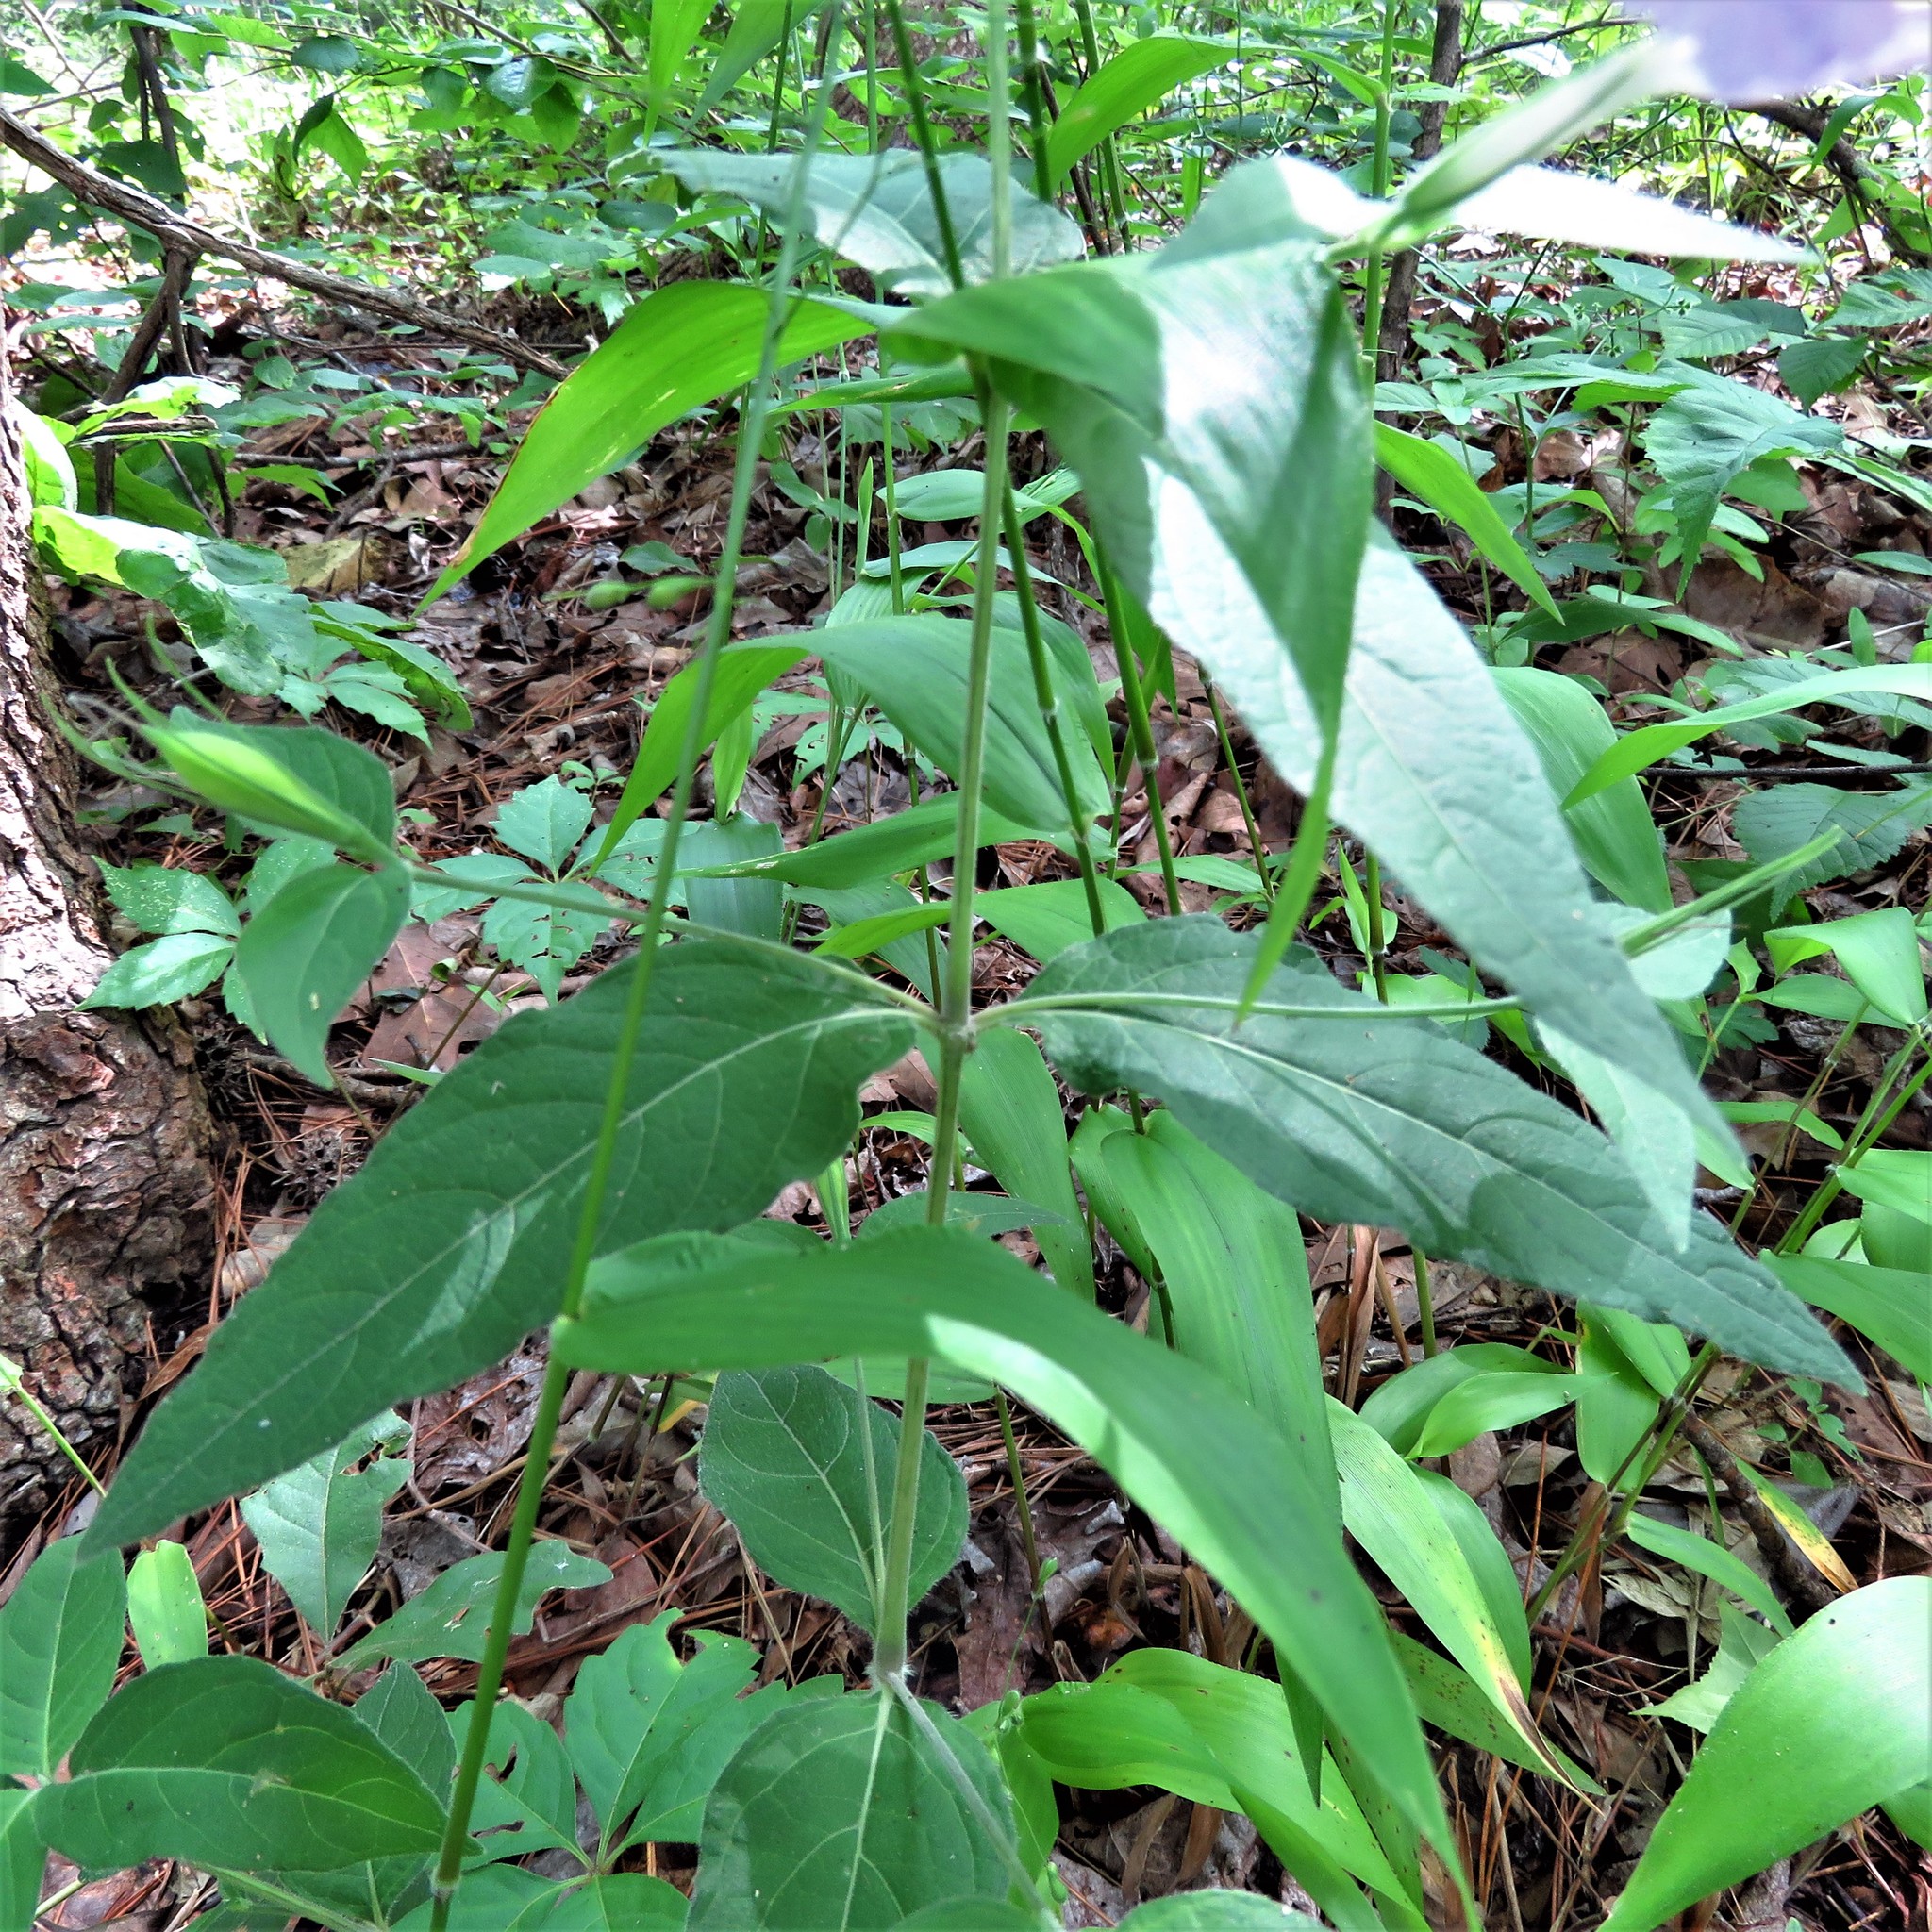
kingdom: Plantae
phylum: Tracheophyta
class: Magnoliopsida
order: Lamiales
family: Acanthaceae
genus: Ruellia
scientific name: Ruellia pedunculata
